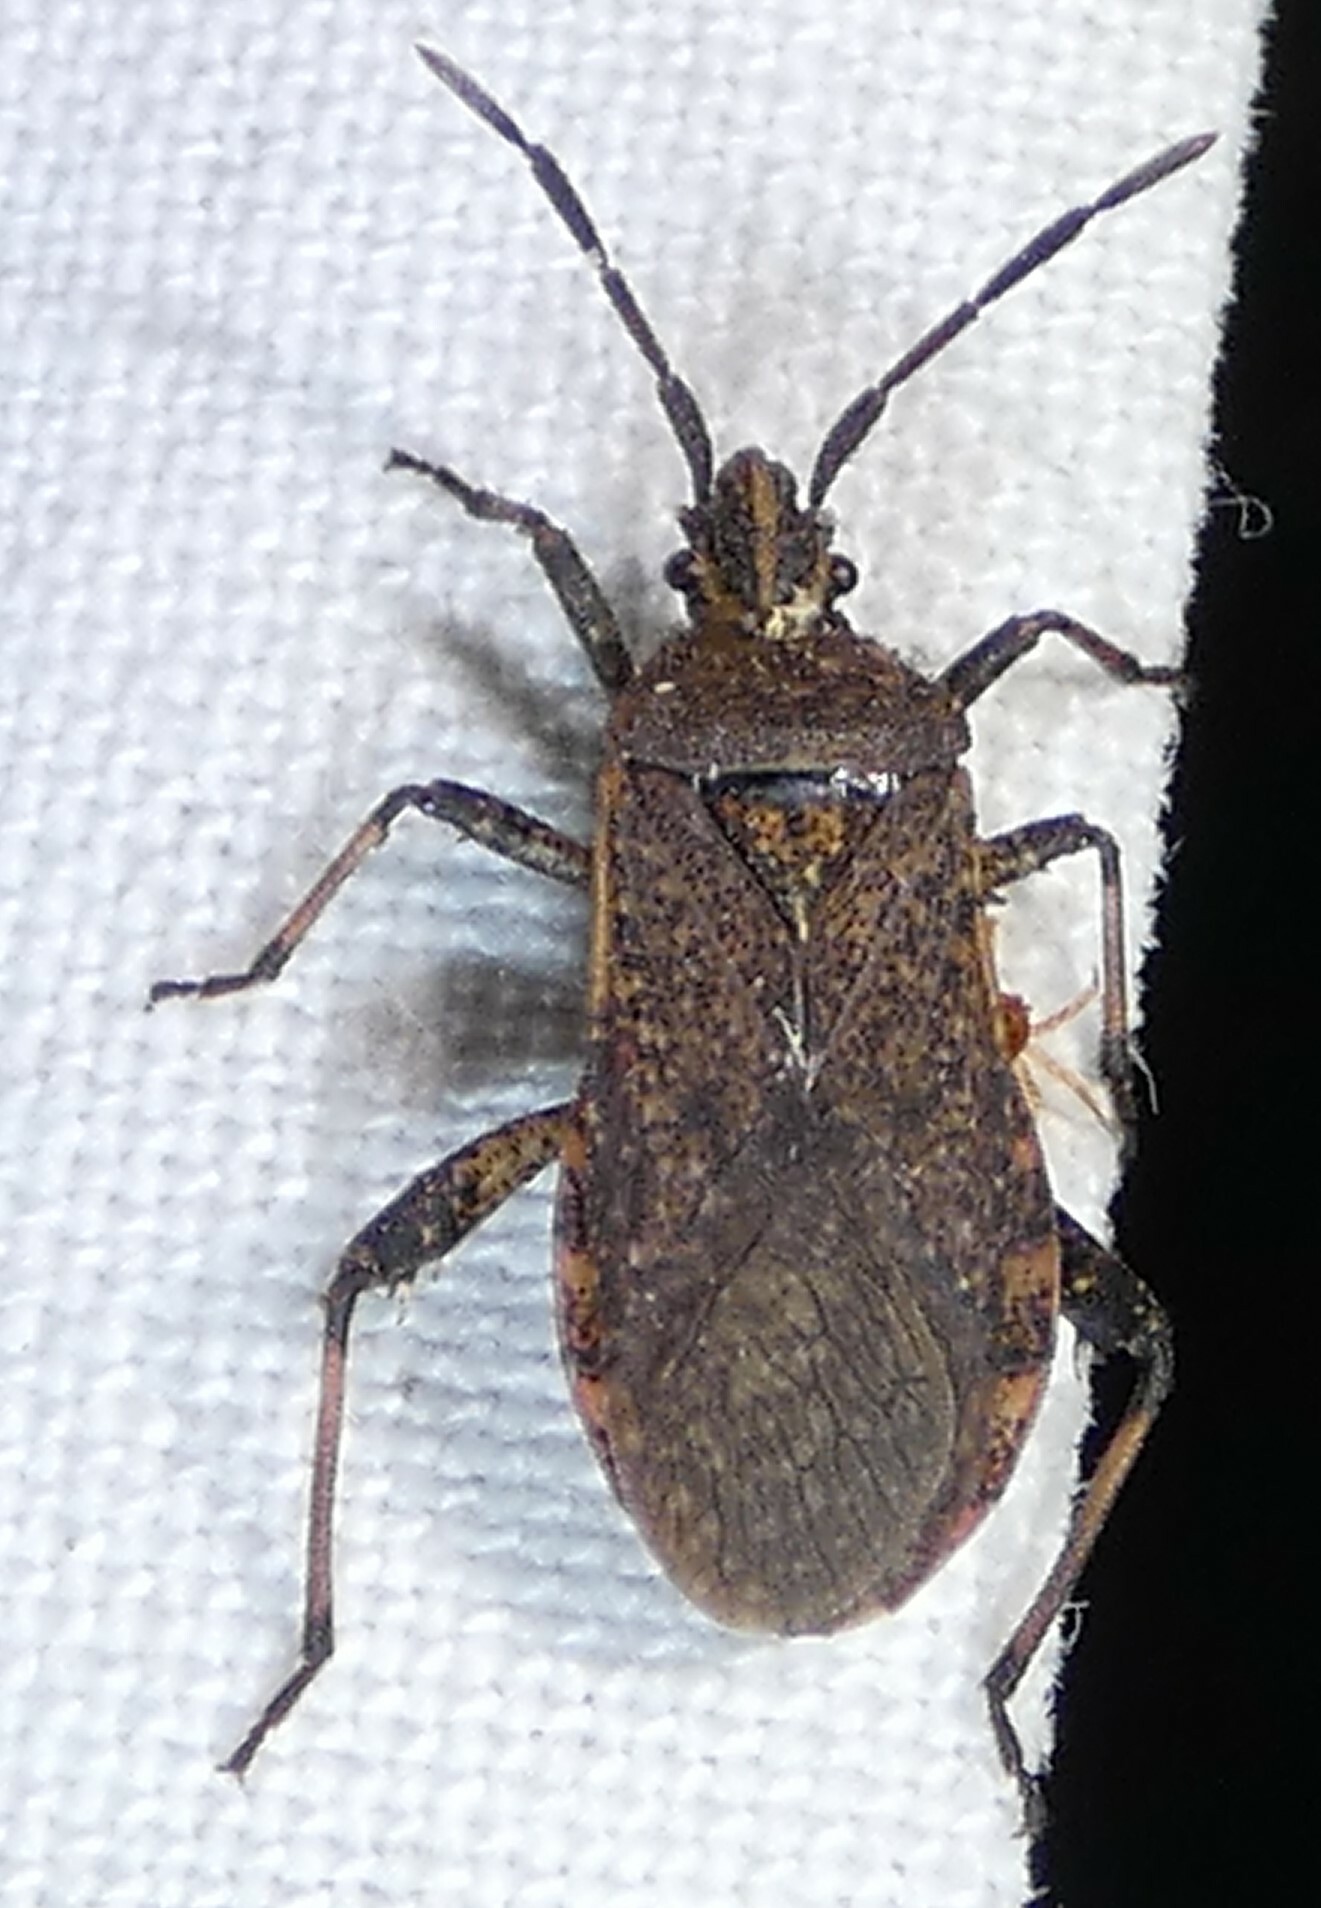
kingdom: Animalia
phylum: Arthropoda
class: Insecta
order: Hemiptera
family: Coreidae
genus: Ceraleptus
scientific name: Ceraleptus americanus
